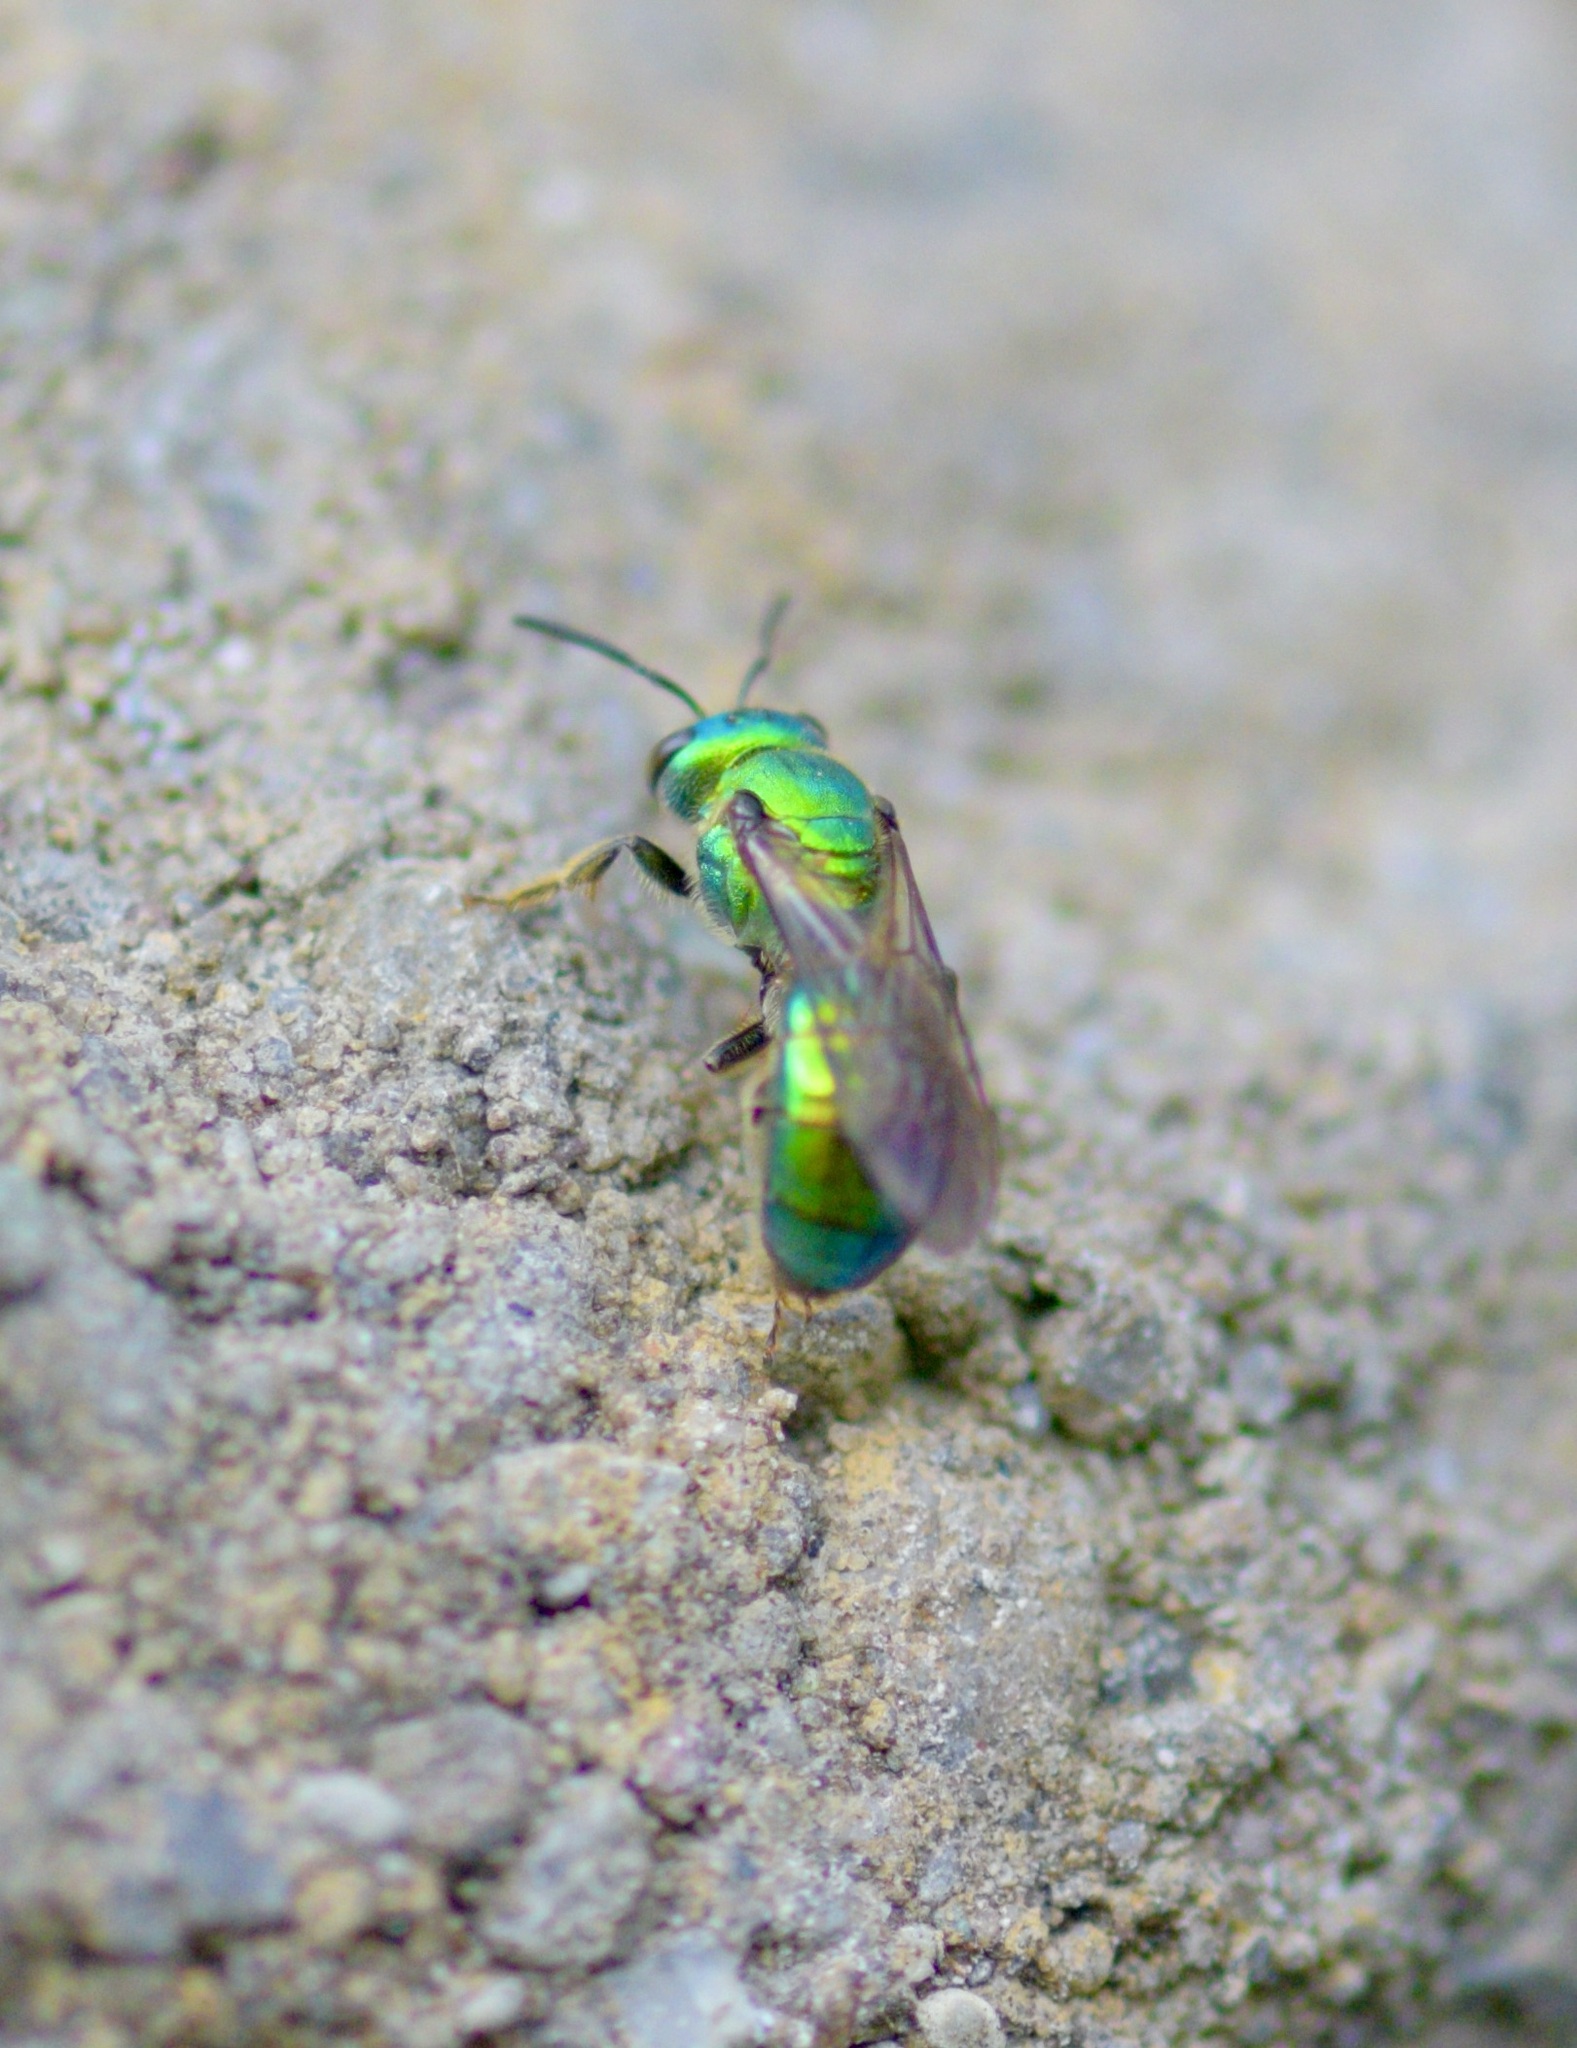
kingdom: Animalia
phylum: Arthropoda
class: Insecta
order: Hymenoptera
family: Halictidae
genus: Augochlora
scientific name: Augochlora pura
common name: Pure green sweat bee
